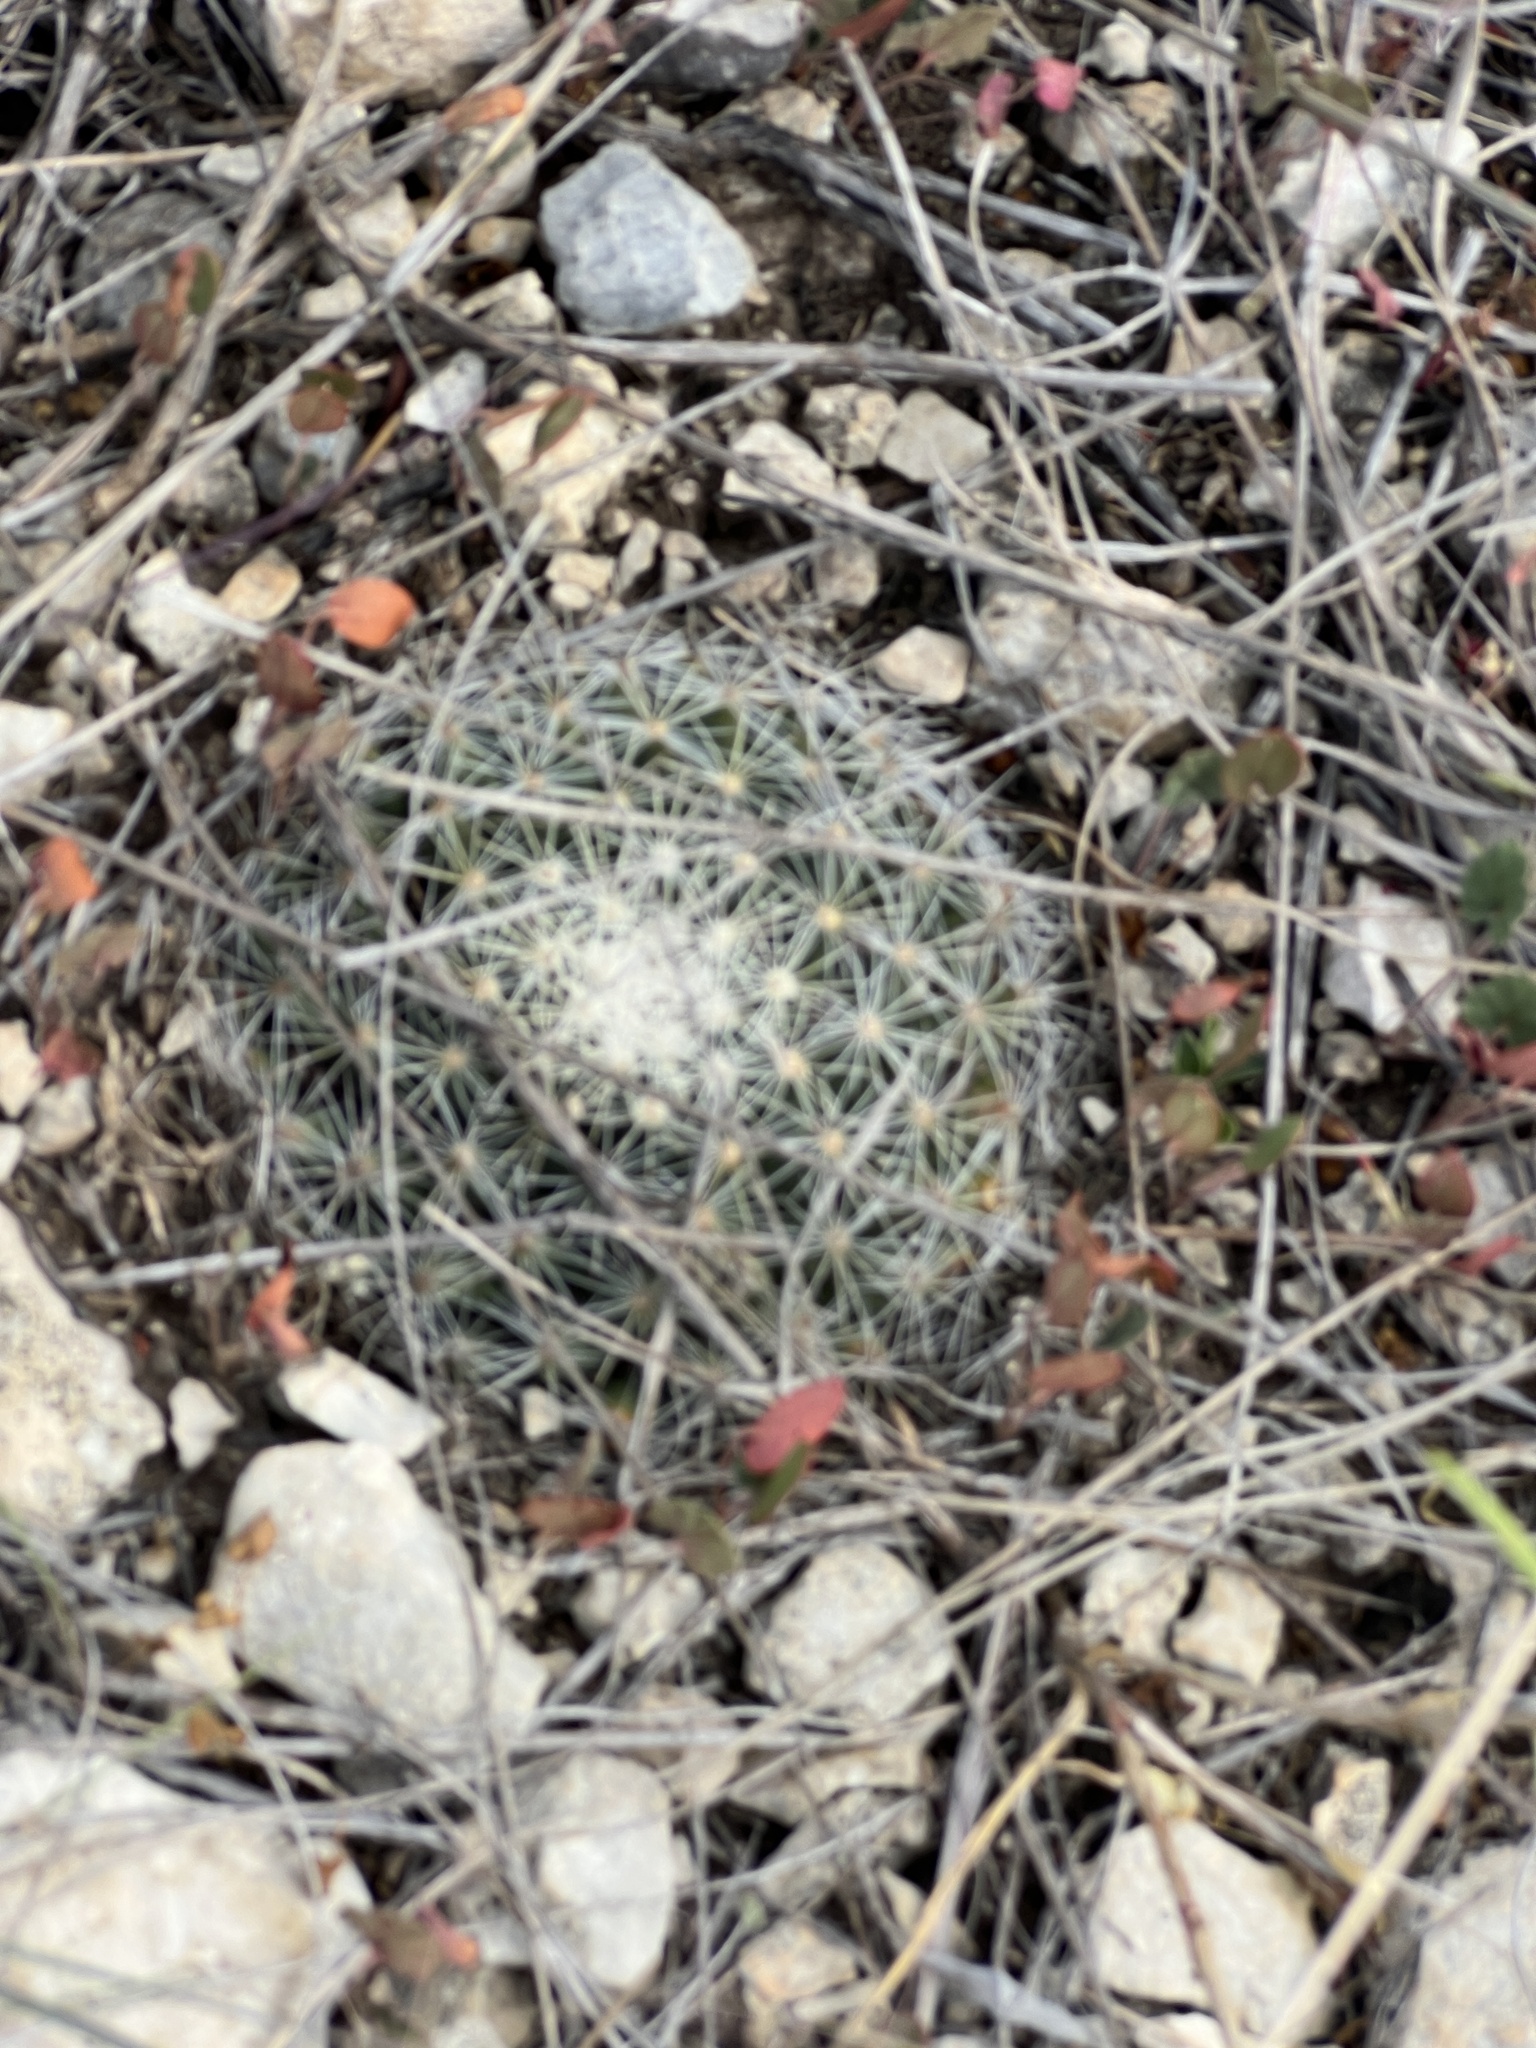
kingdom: Plantae
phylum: Tracheophyta
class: Magnoliopsida
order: Caryophyllales
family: Cactaceae
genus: Mammillaria
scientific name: Mammillaria heyderi
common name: Little nipple cactus
